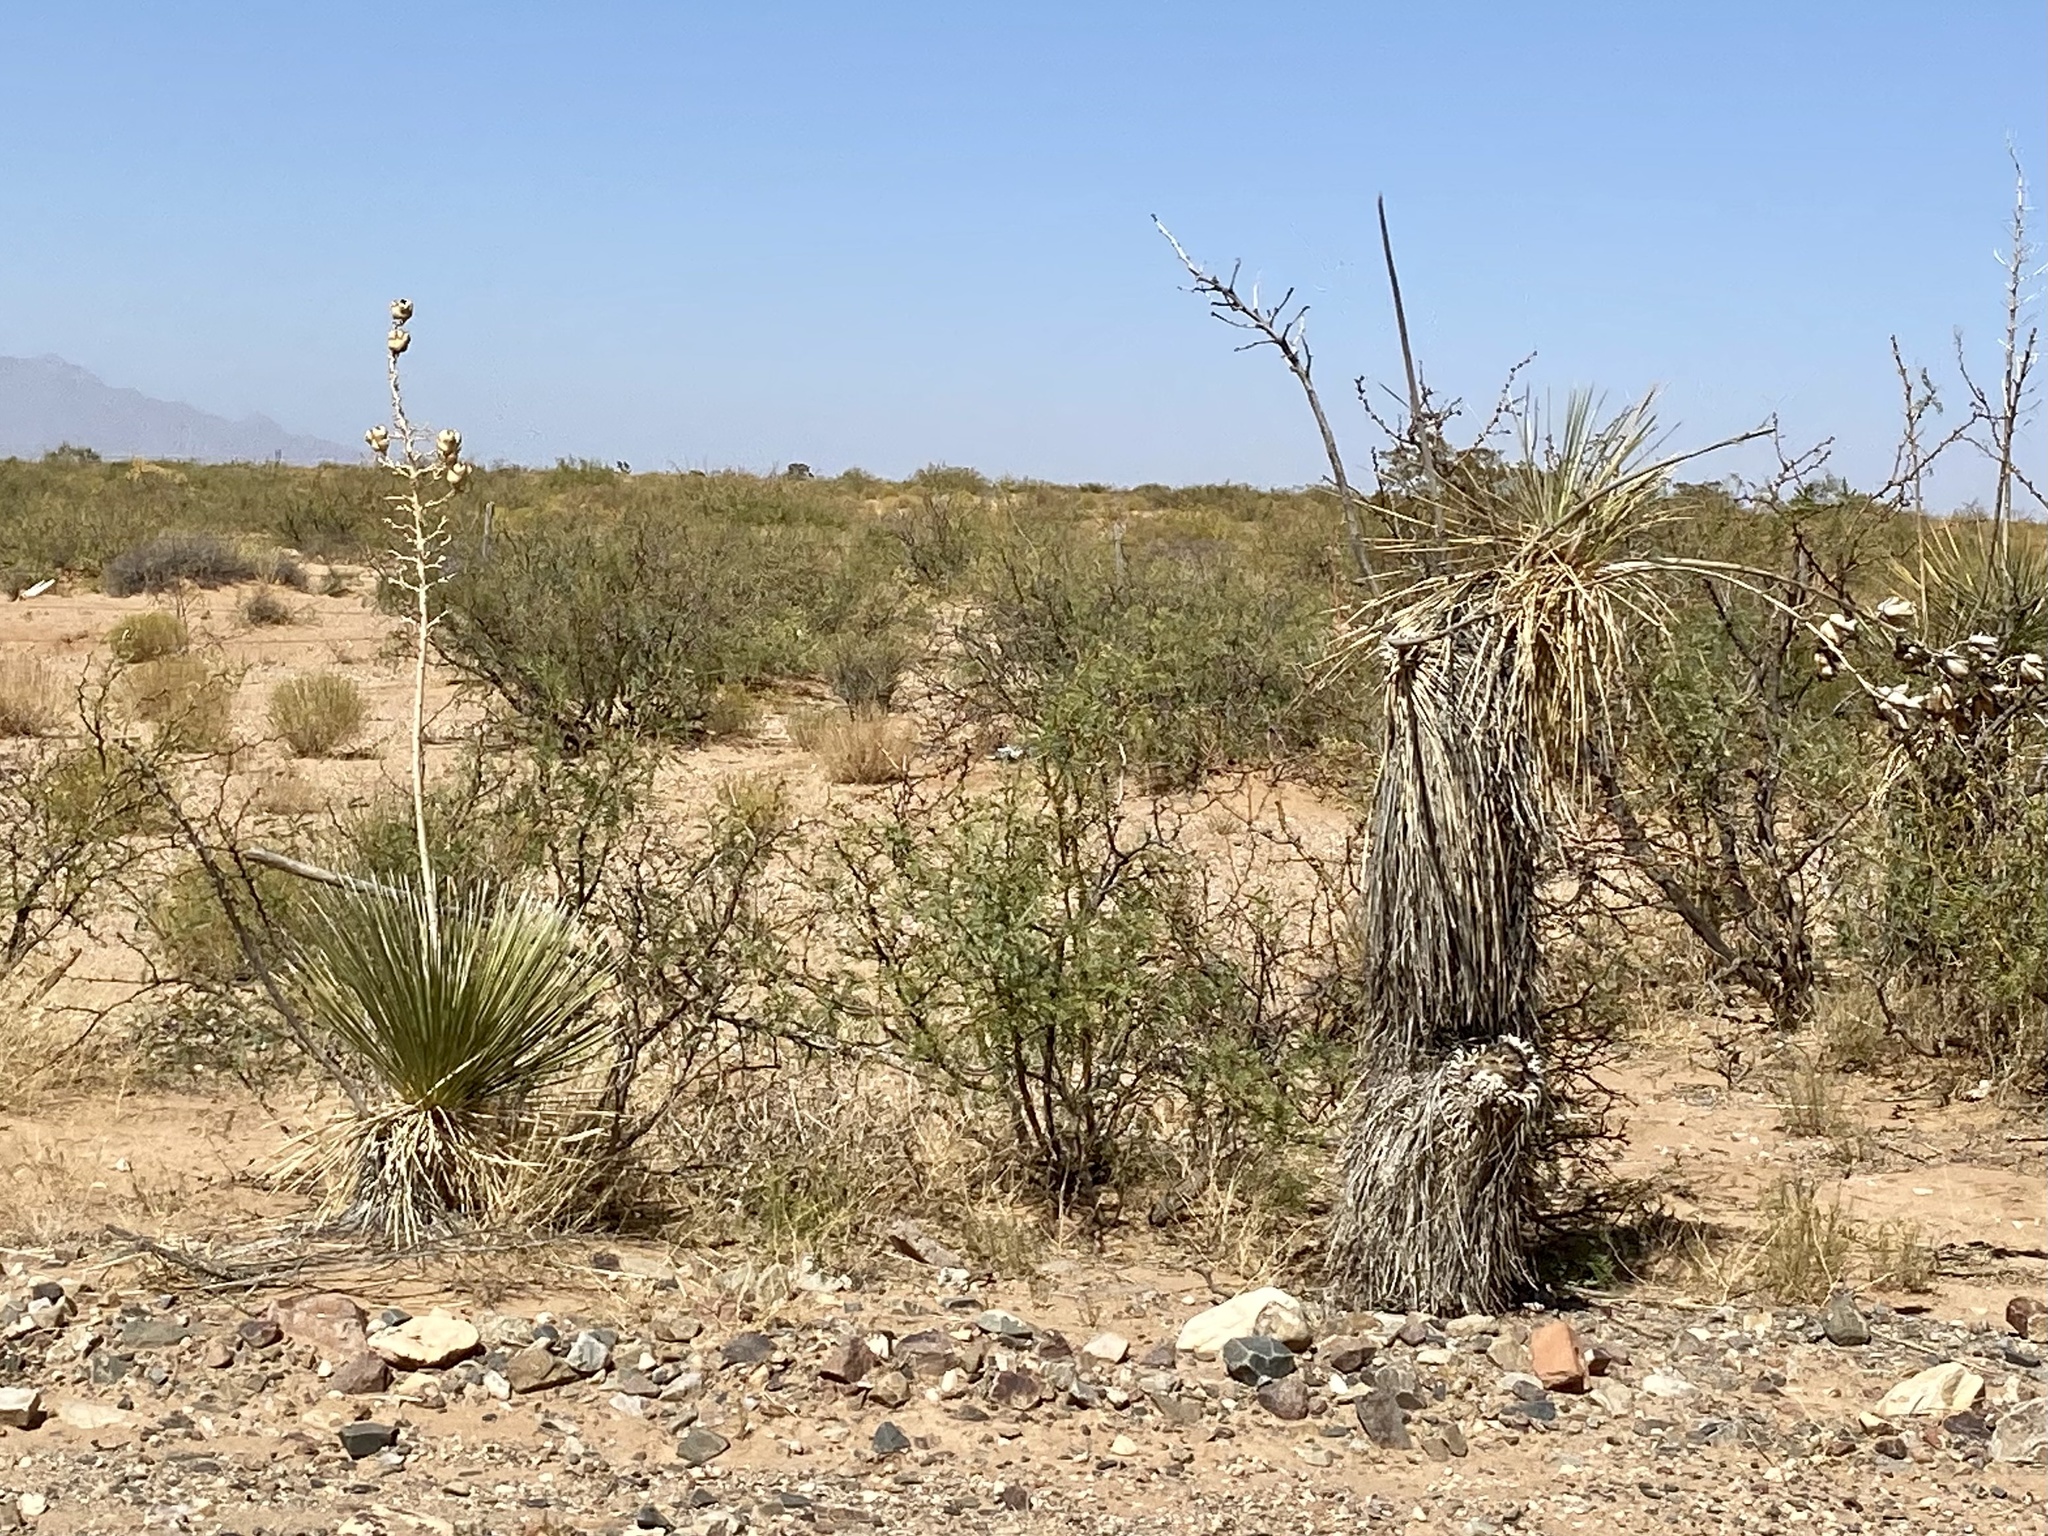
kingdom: Plantae
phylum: Tracheophyta
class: Liliopsida
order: Asparagales
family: Asparagaceae
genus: Yucca
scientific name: Yucca elata
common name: Palmella
